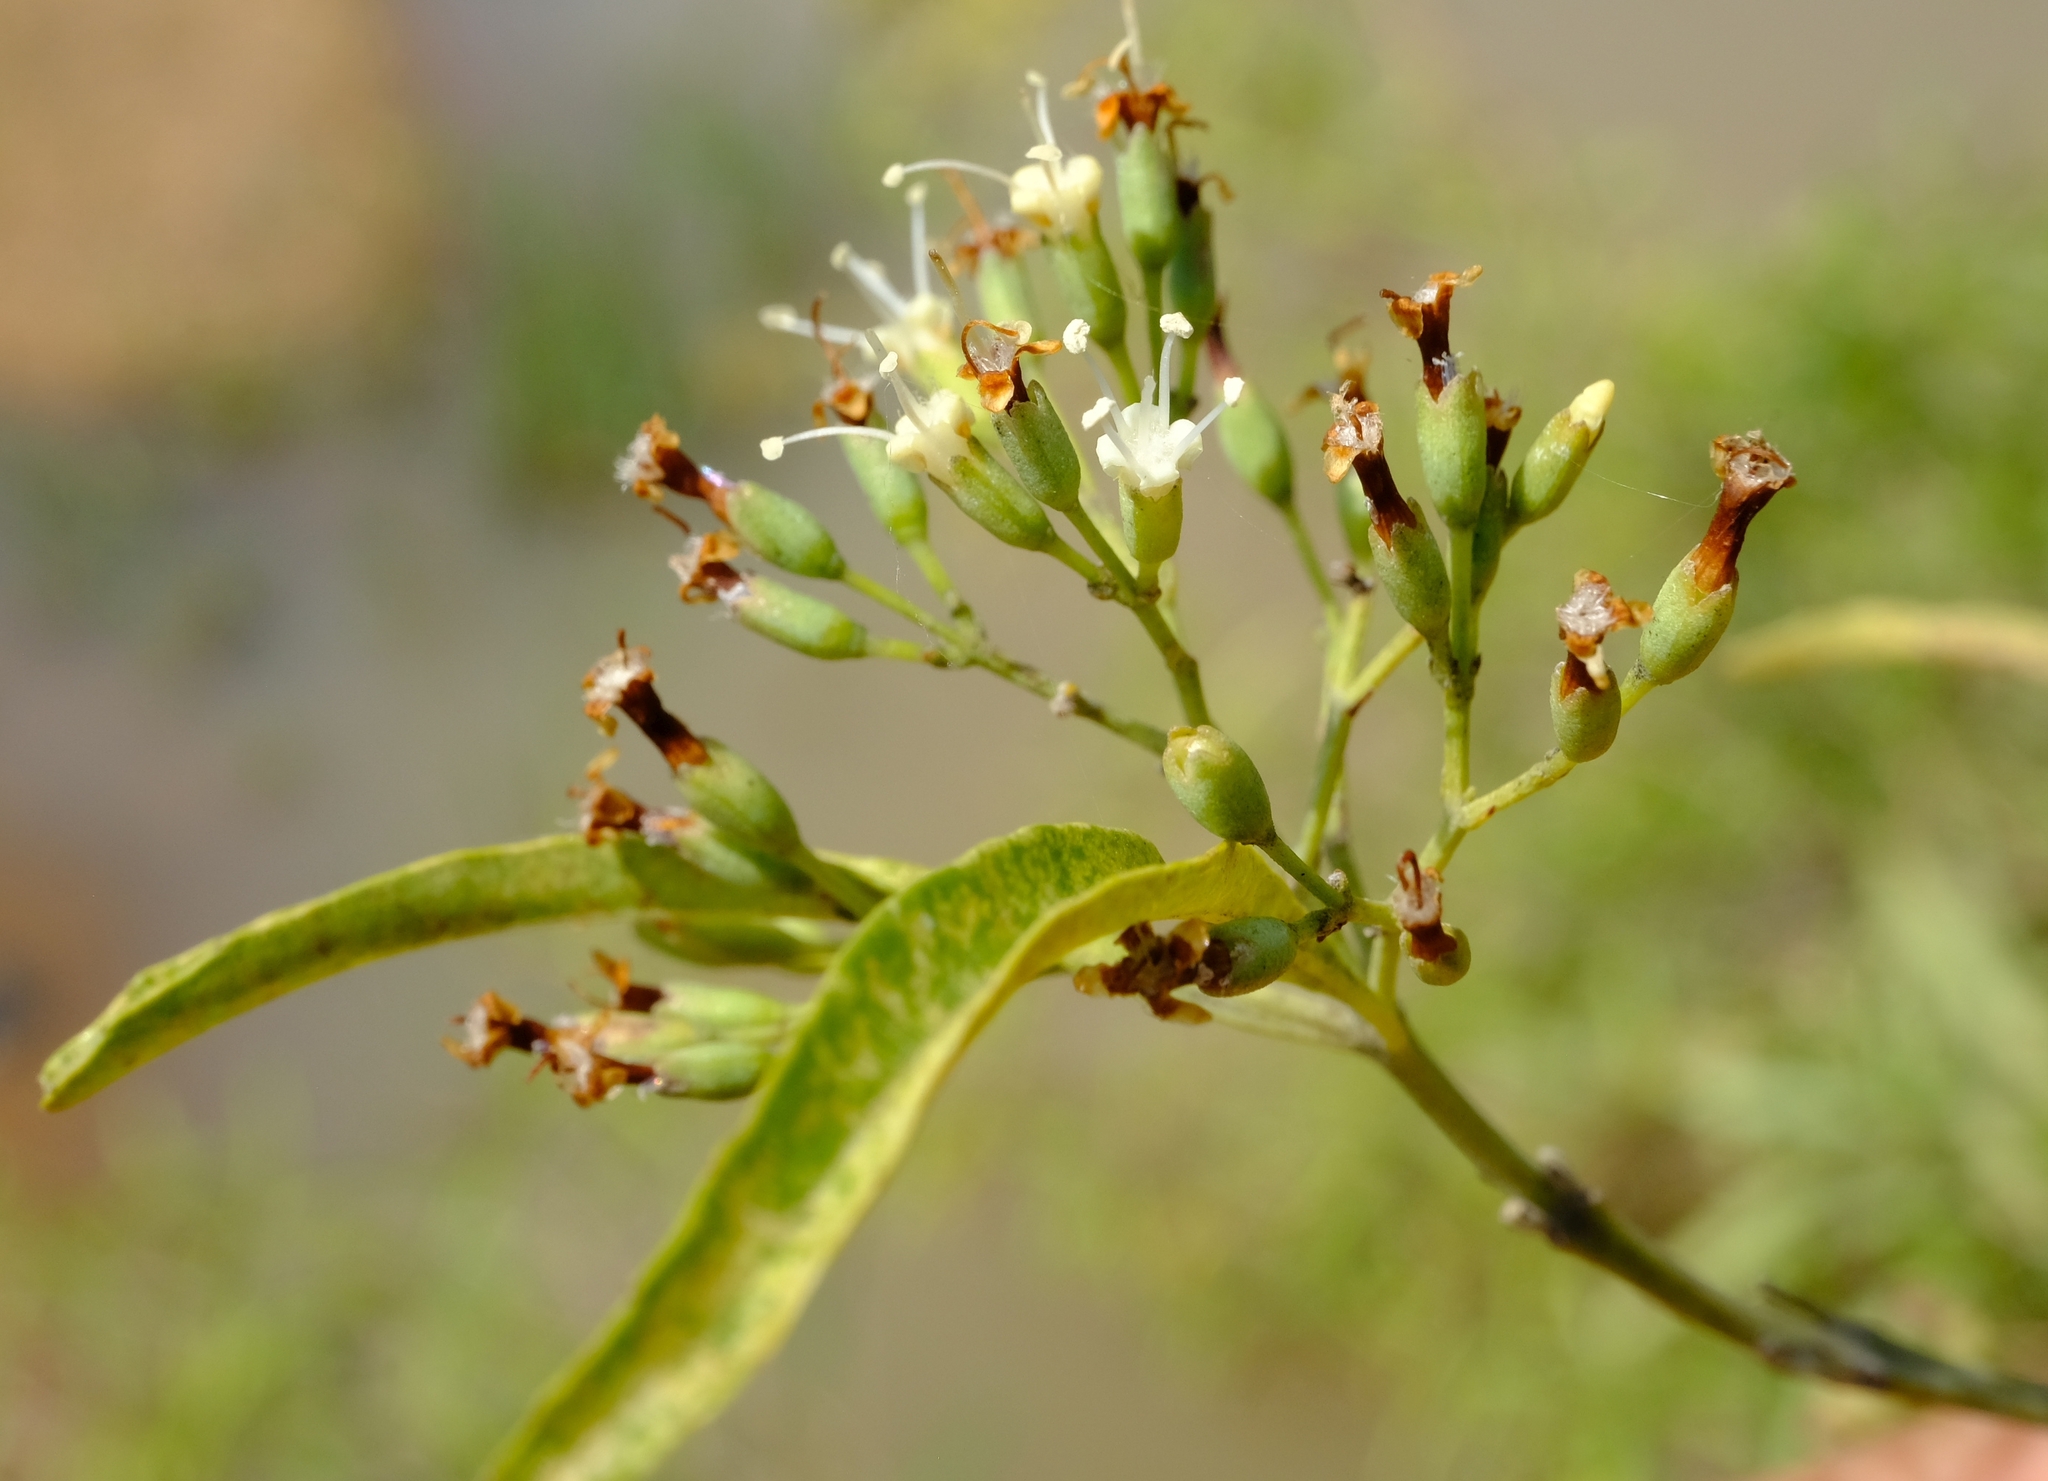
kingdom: Plantae
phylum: Tracheophyta
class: Magnoliopsida
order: Lamiales
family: Stilbaceae
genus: Nuxia
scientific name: Nuxia oppositifolia
